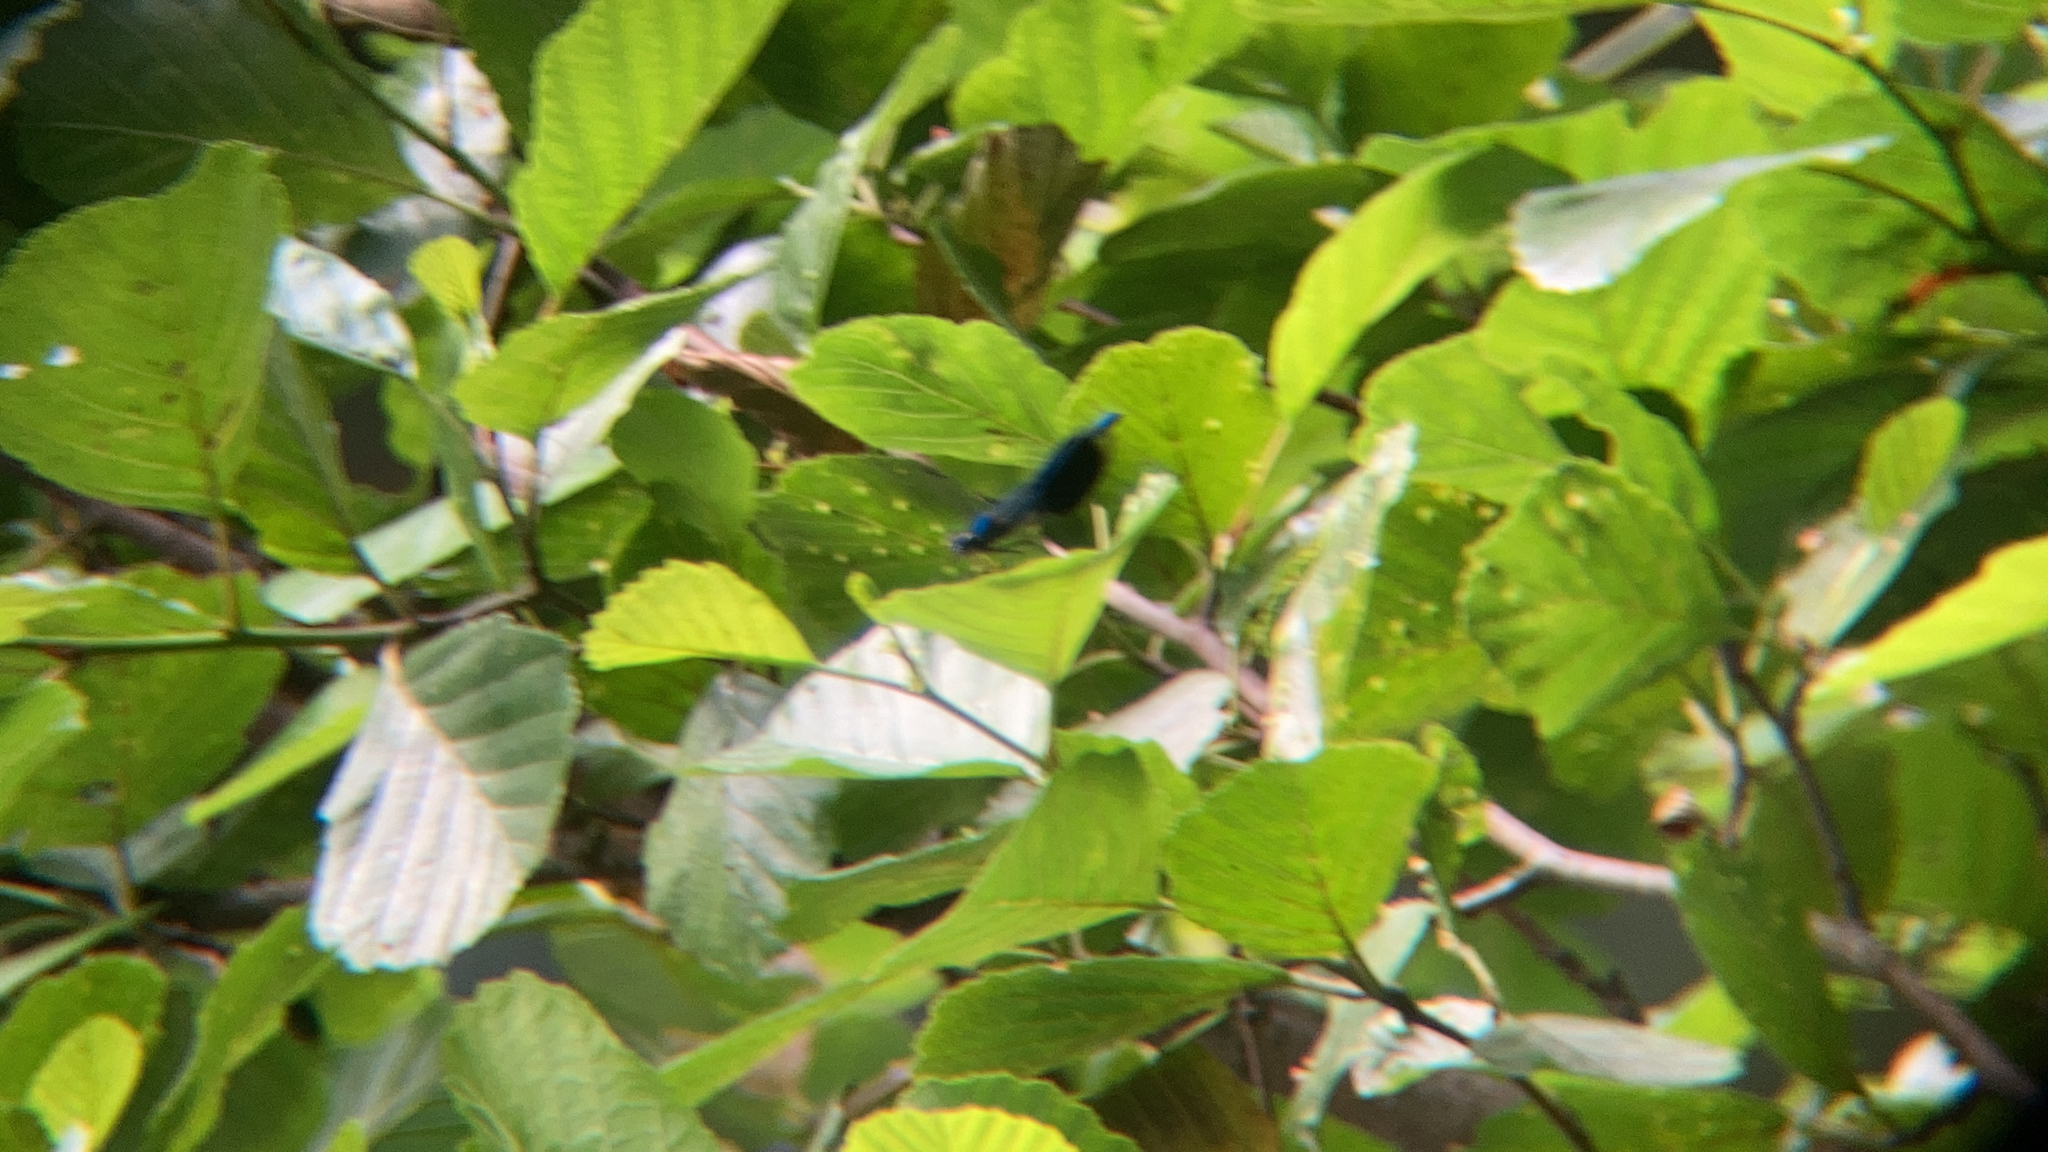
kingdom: Animalia
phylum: Arthropoda
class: Insecta
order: Odonata
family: Calopterygidae
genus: Calopteryx
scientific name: Calopteryx splendens
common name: Banded demoiselle
